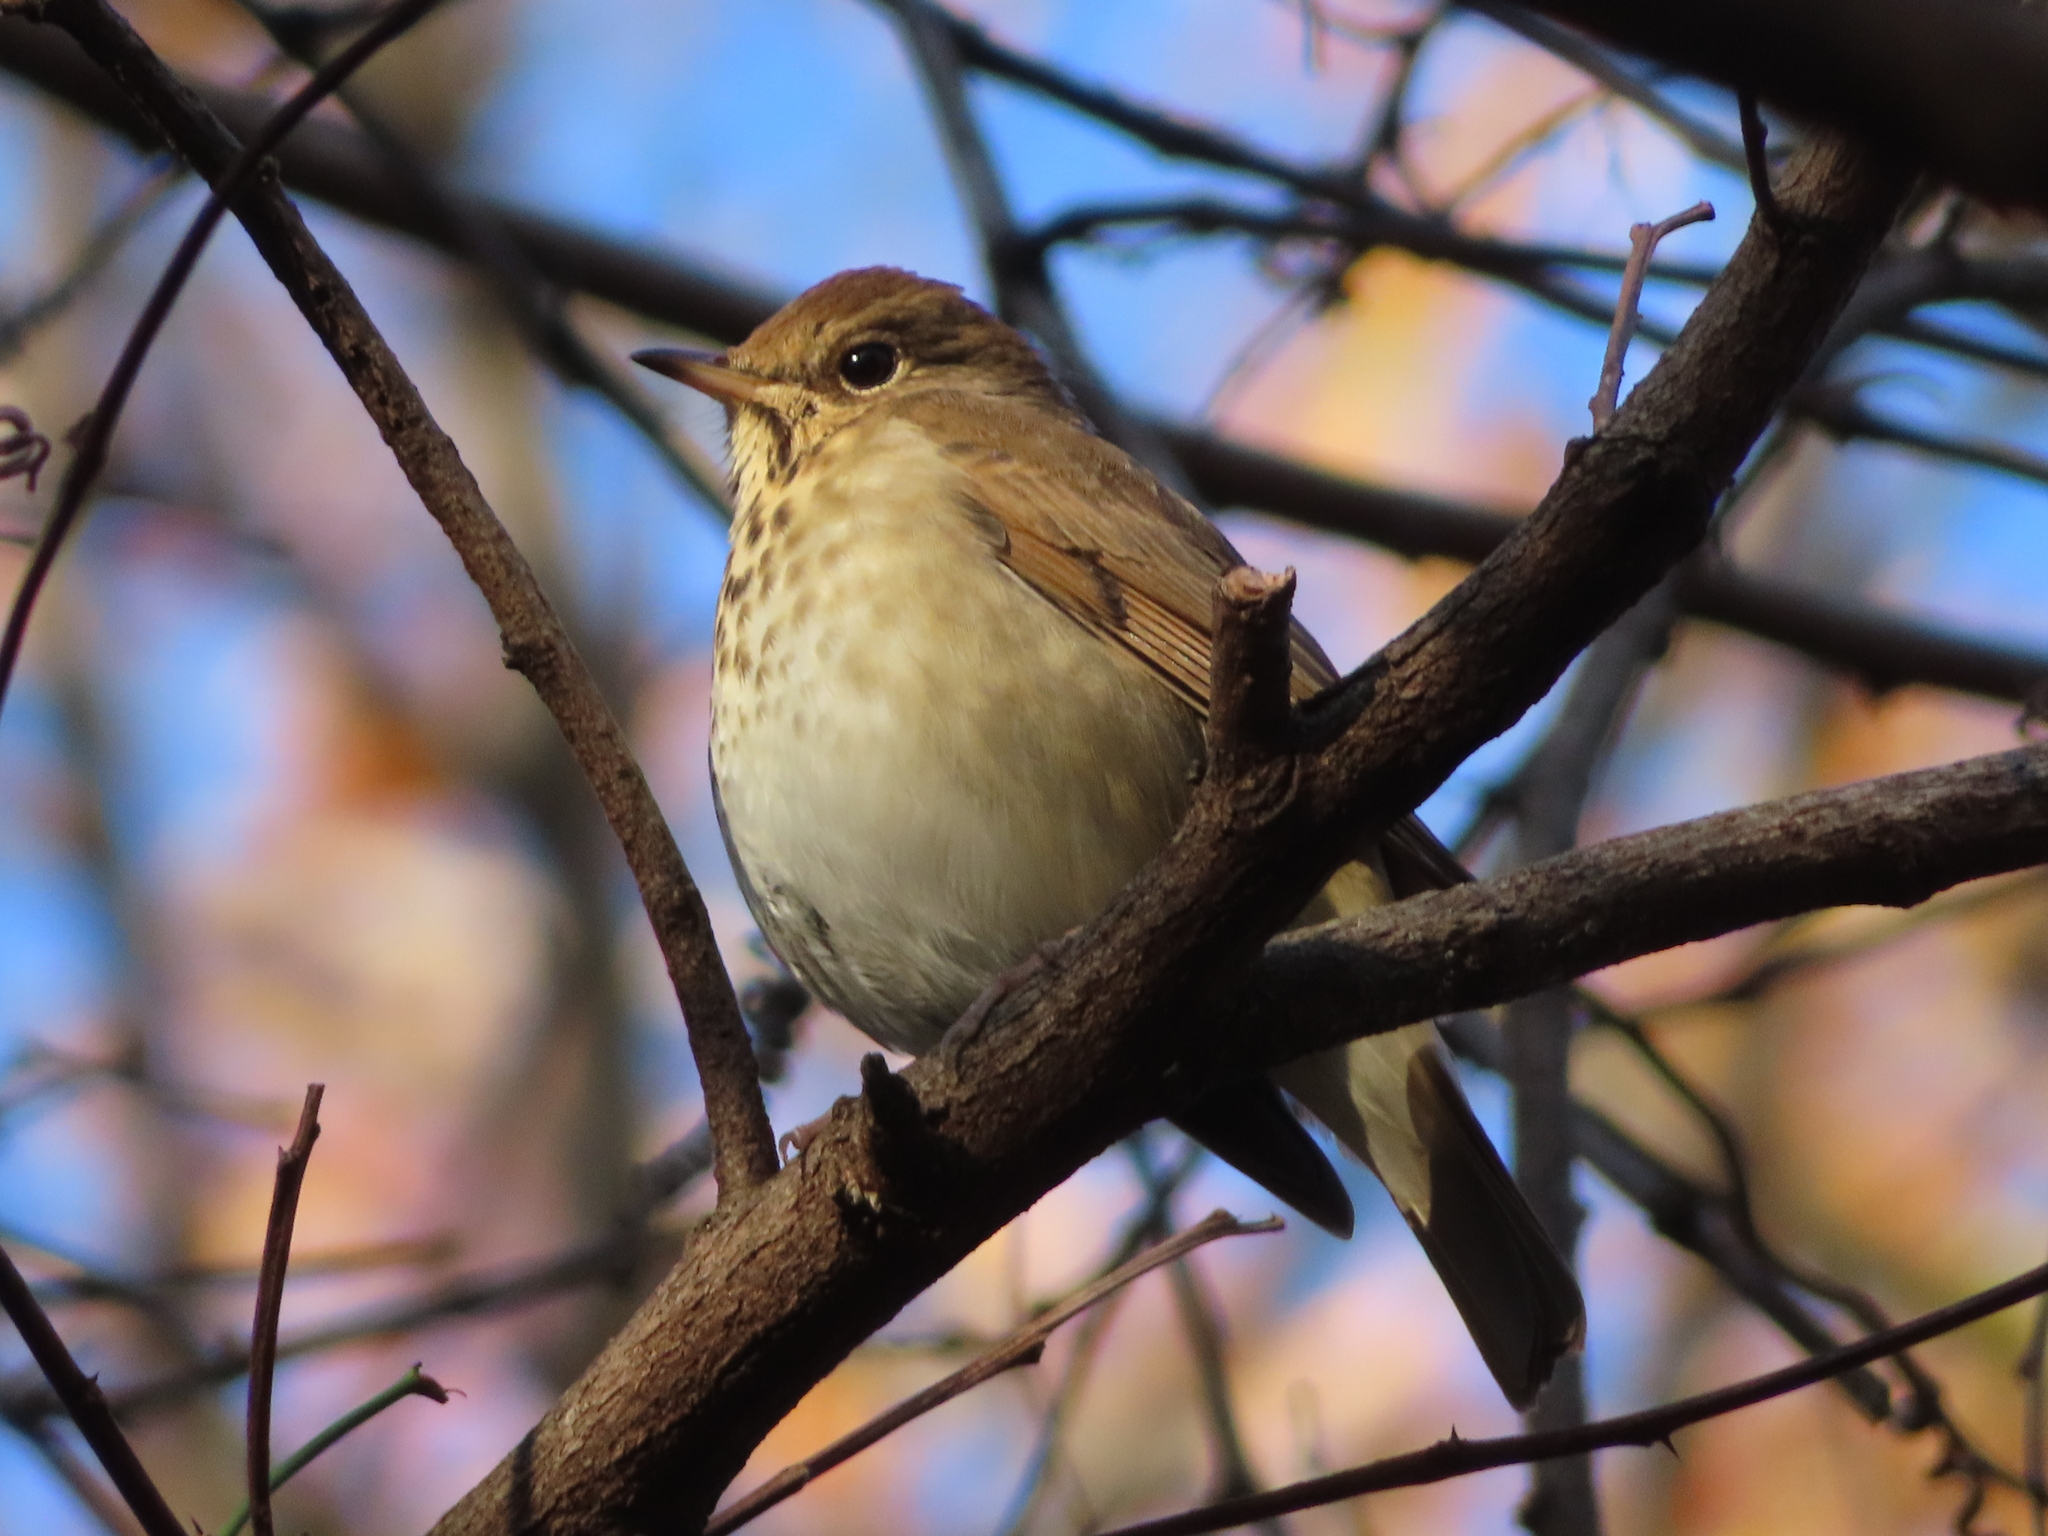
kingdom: Animalia
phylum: Chordata
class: Aves
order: Passeriformes
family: Turdidae
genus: Catharus
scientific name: Catharus guttatus
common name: Hermit thrush
